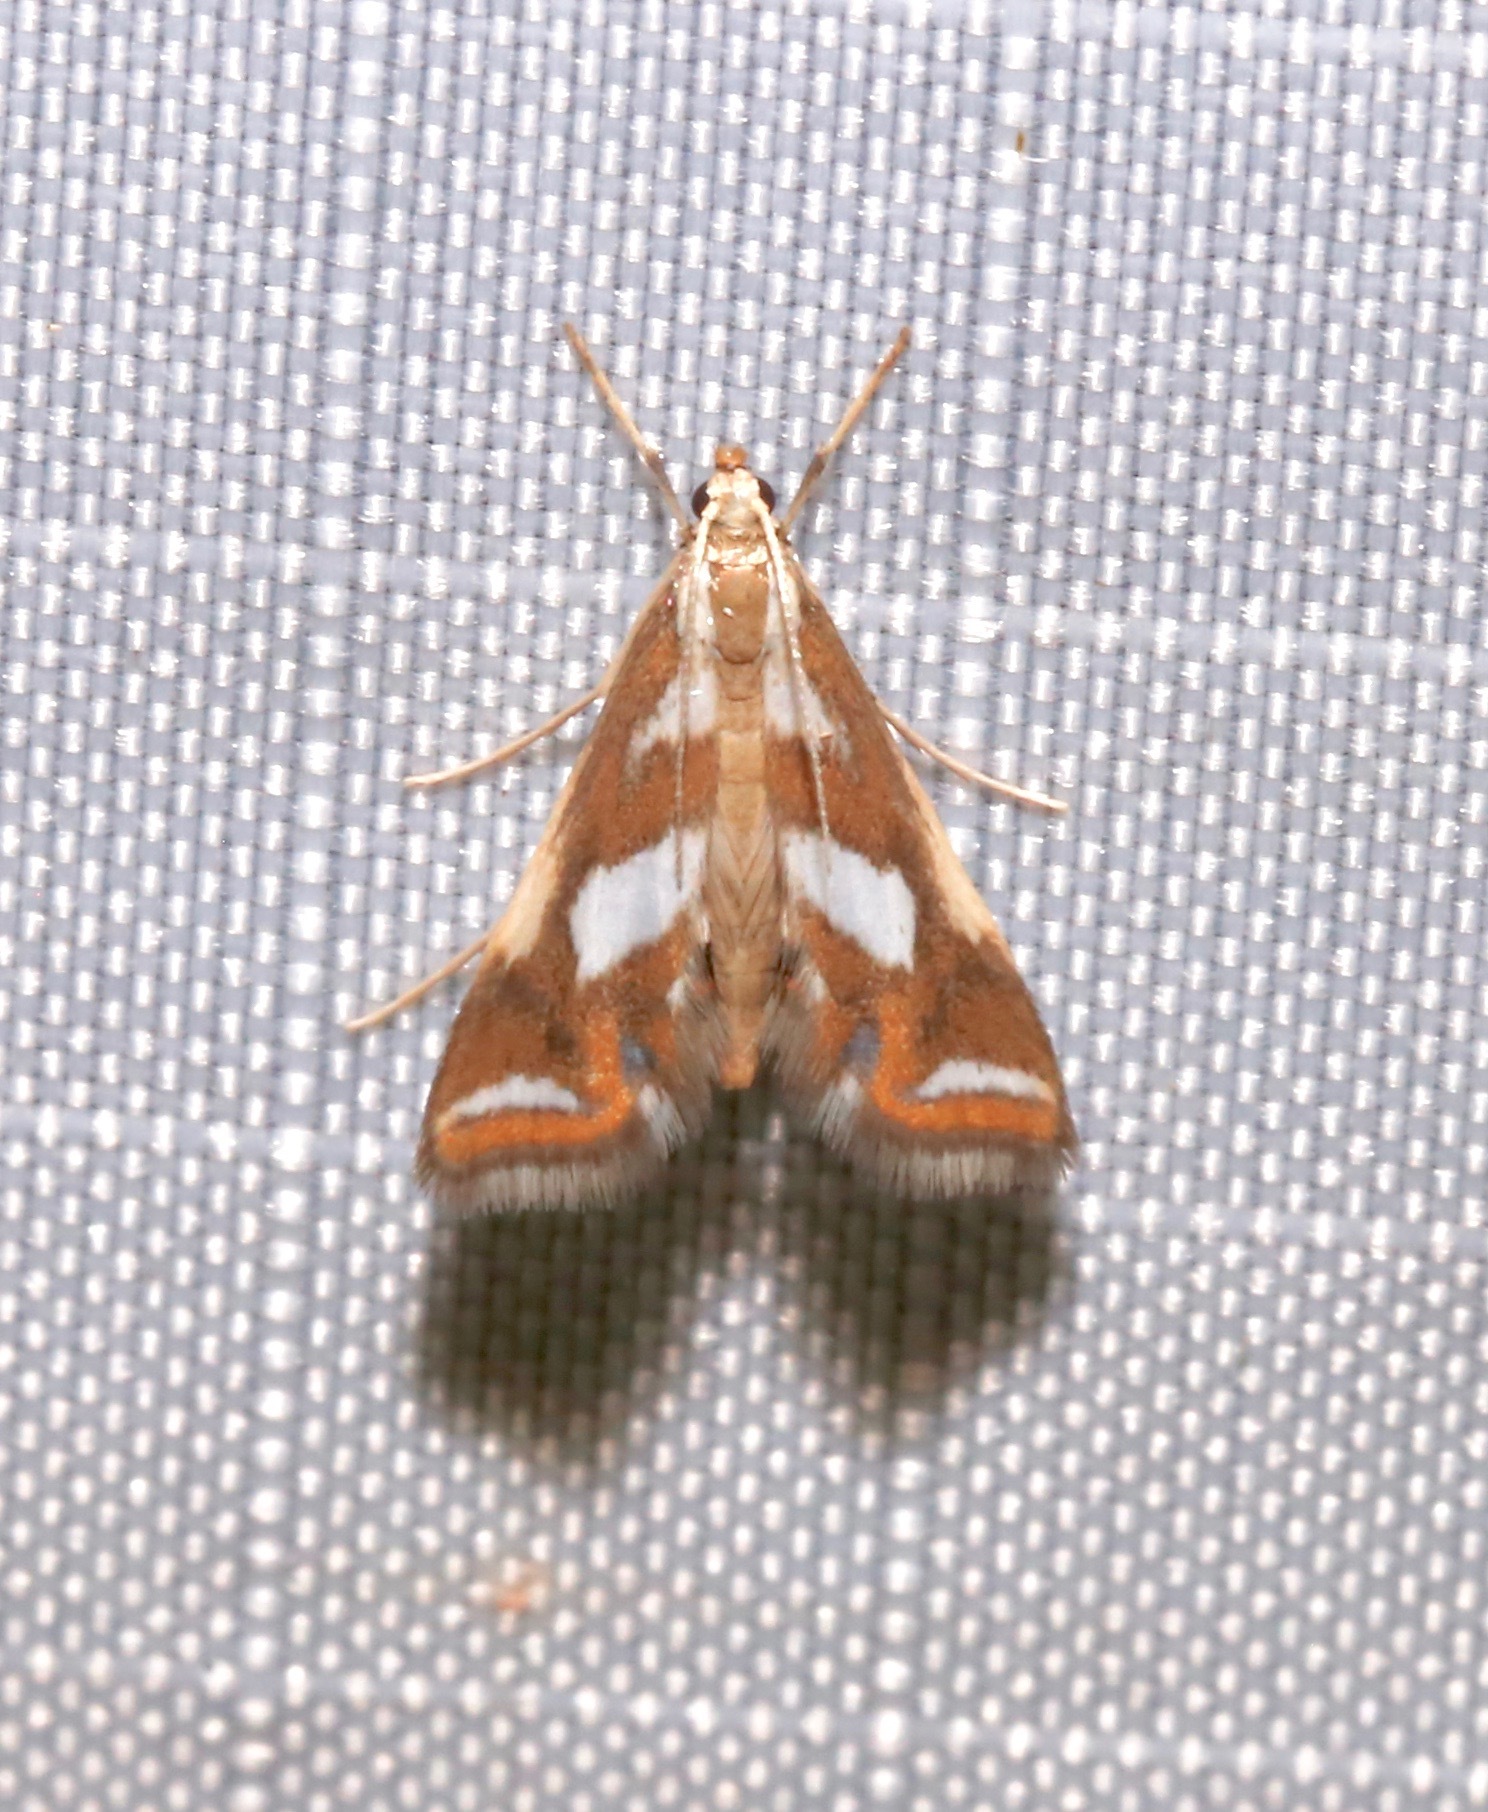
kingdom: Animalia
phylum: Arthropoda
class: Insecta
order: Lepidoptera
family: Crambidae
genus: Chrysendeton
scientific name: Chrysendeton imitabilis
